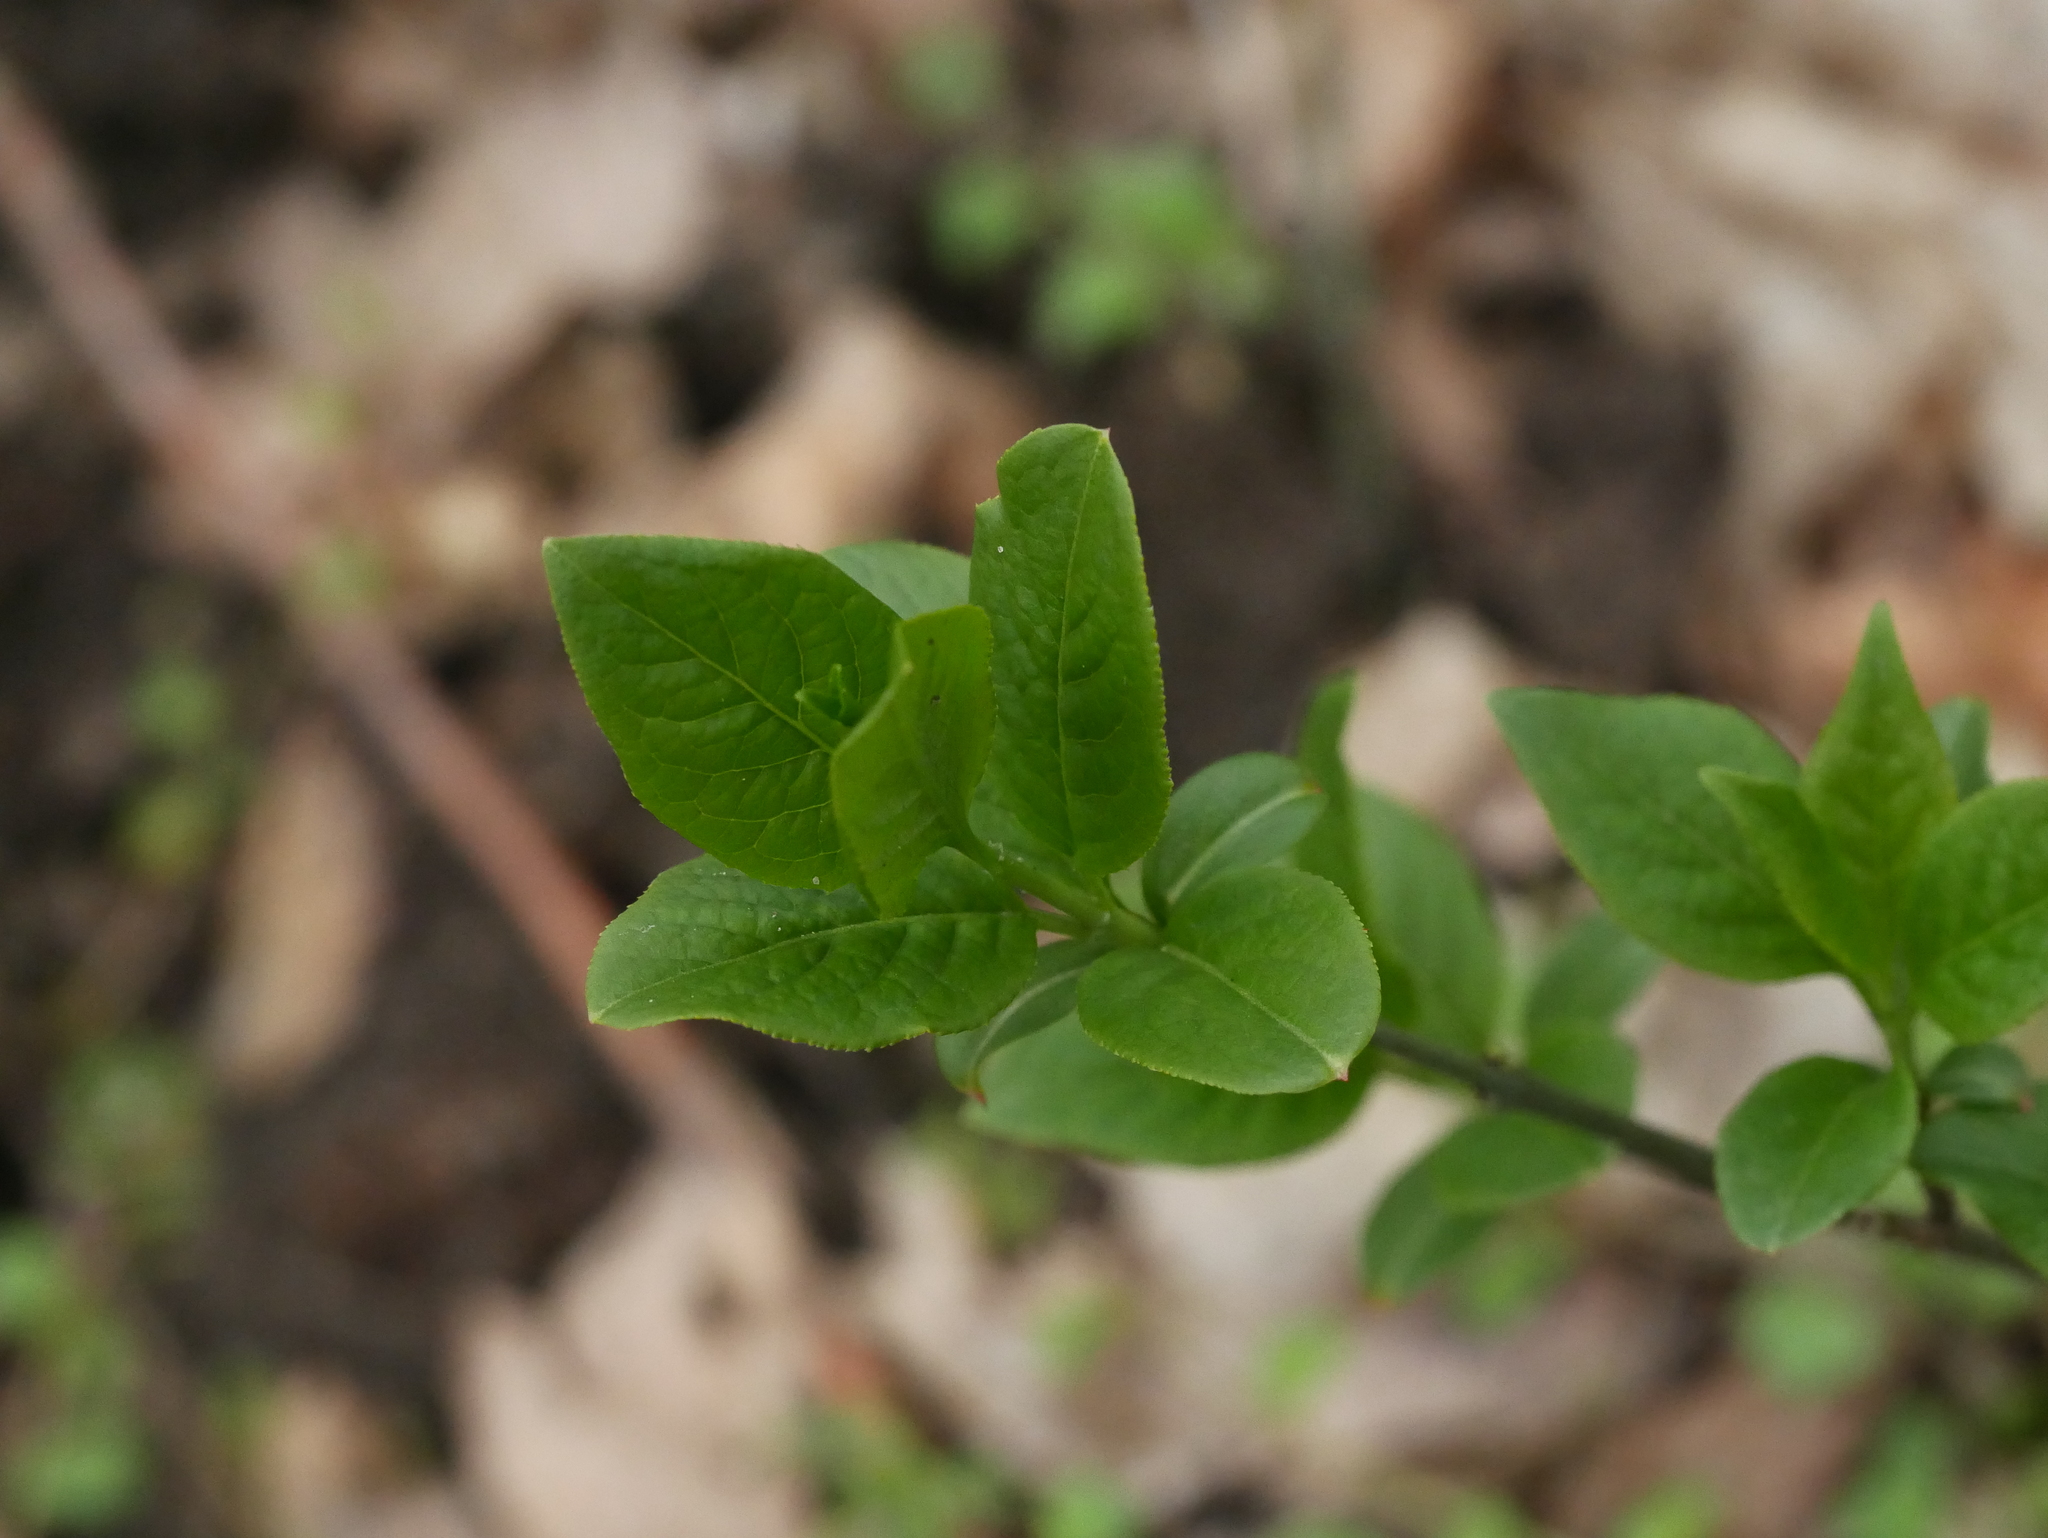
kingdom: Plantae
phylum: Tracheophyta
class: Magnoliopsida
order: Celastrales
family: Celastraceae
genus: Euonymus
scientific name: Euonymus europaeus
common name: Spindle
